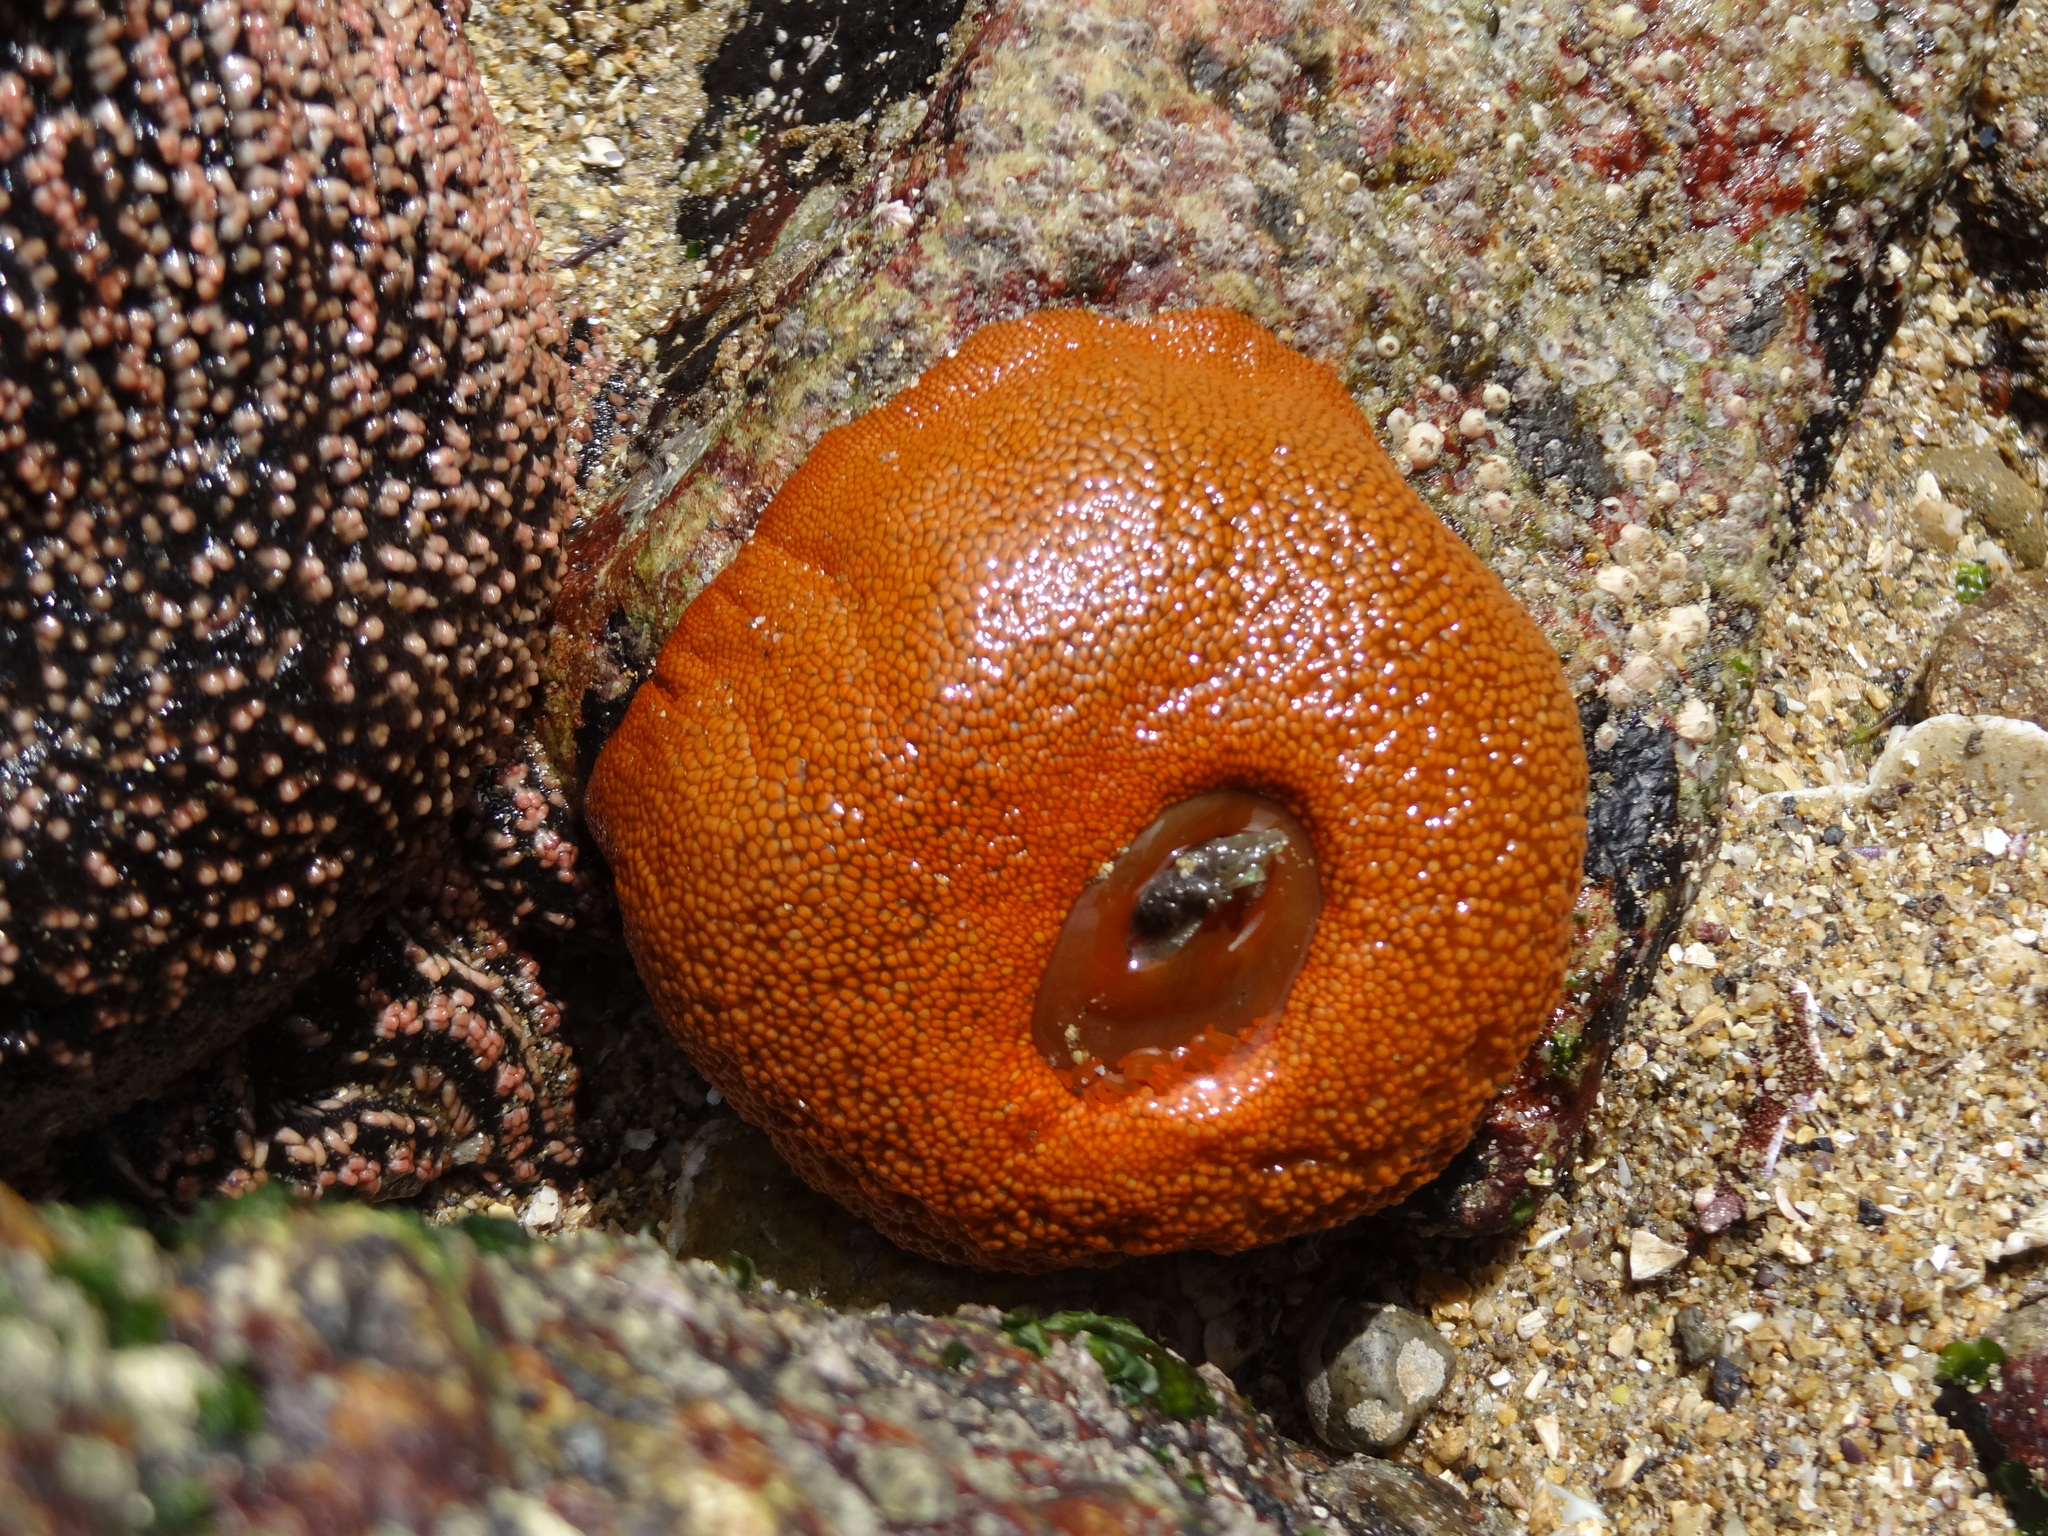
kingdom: Animalia
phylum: Cnidaria
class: Anthozoa
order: Actiniaria
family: Actiniidae
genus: Phymanthea
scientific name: Phymanthea pluvia
